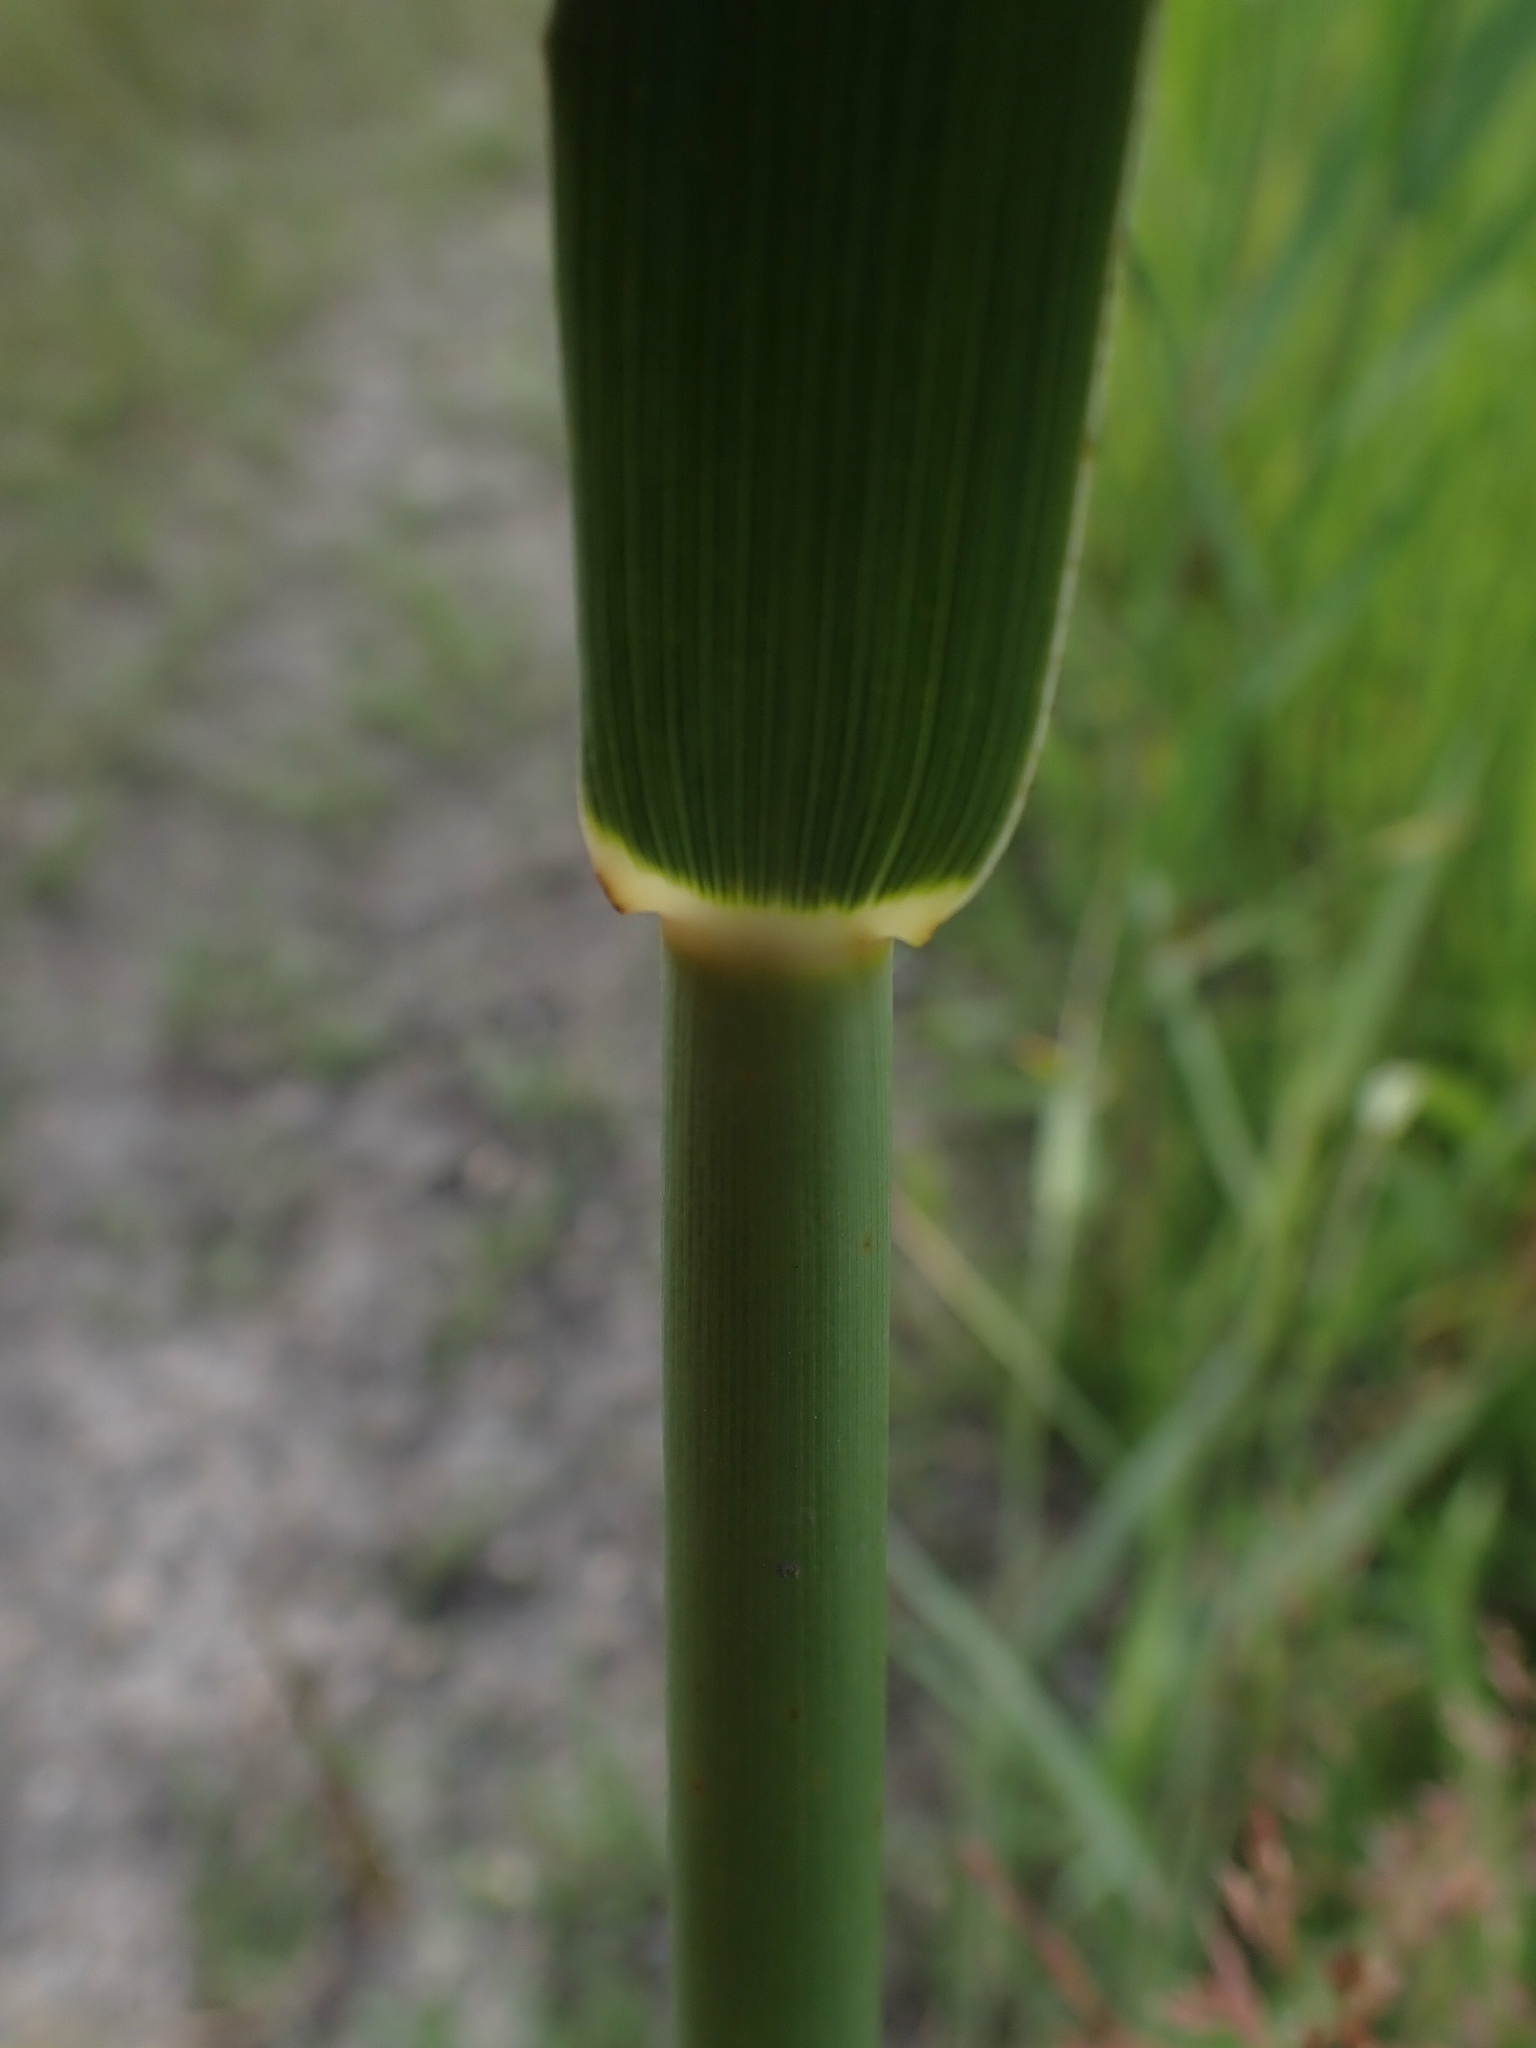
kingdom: Plantae
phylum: Tracheophyta
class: Liliopsida
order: Poales
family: Poaceae
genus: Phragmites
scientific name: Phragmites australis
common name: Common reed
